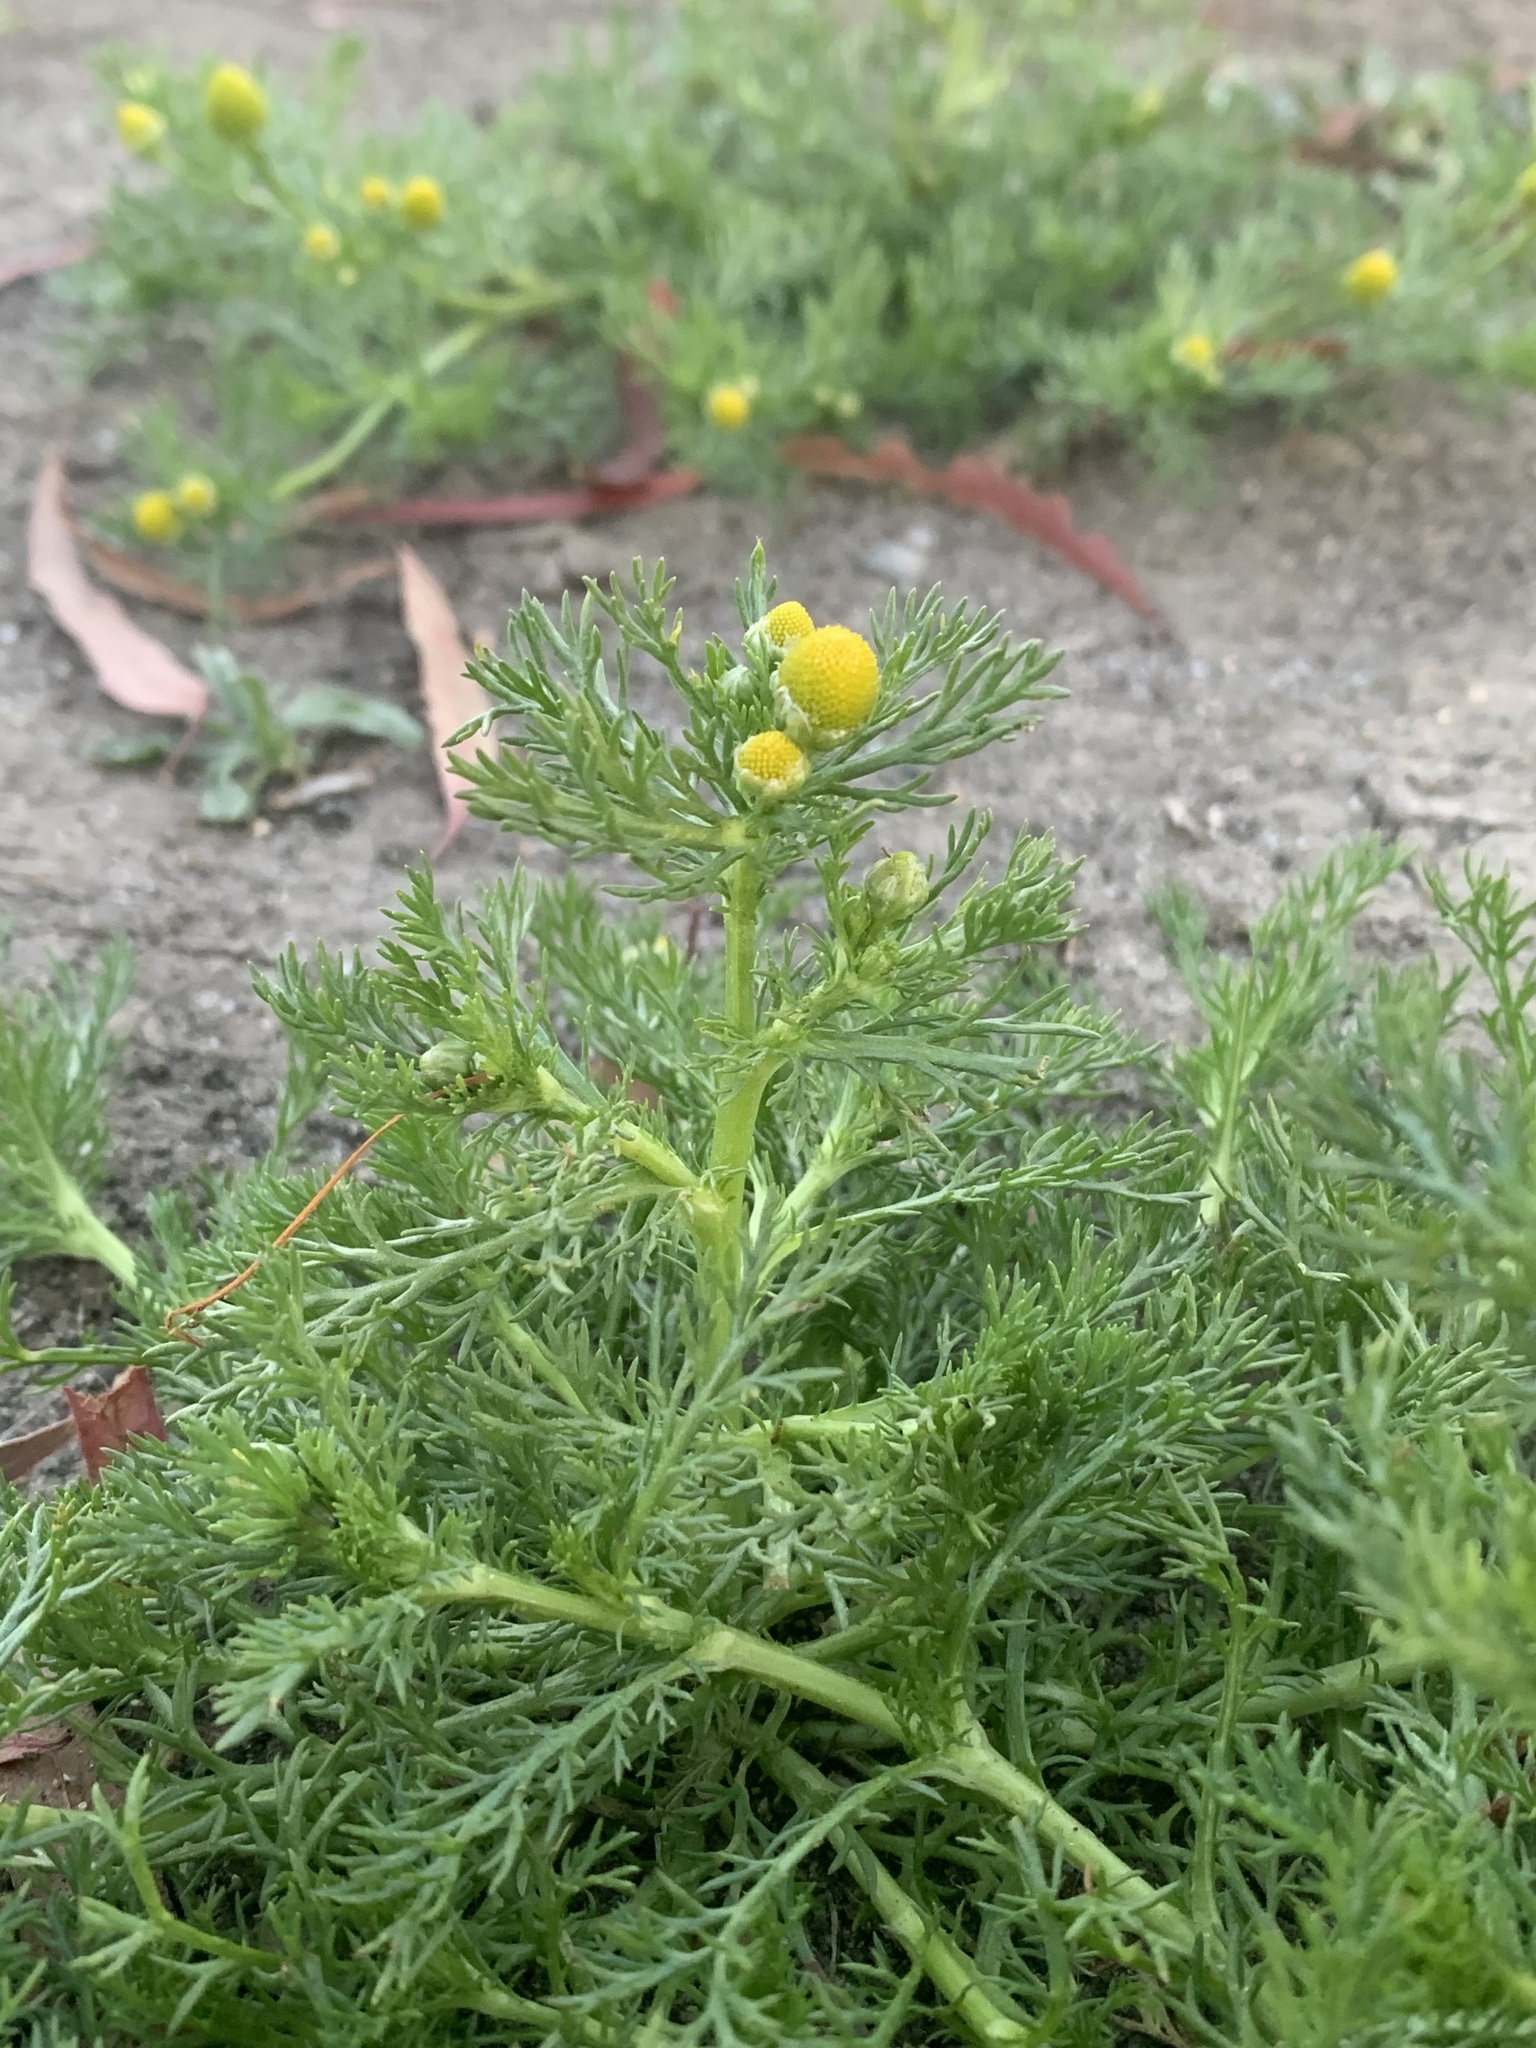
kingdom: Plantae
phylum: Tracheophyta
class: Magnoliopsida
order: Asterales
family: Asteraceae
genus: Matricaria
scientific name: Matricaria discoidea
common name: Disc mayweed
